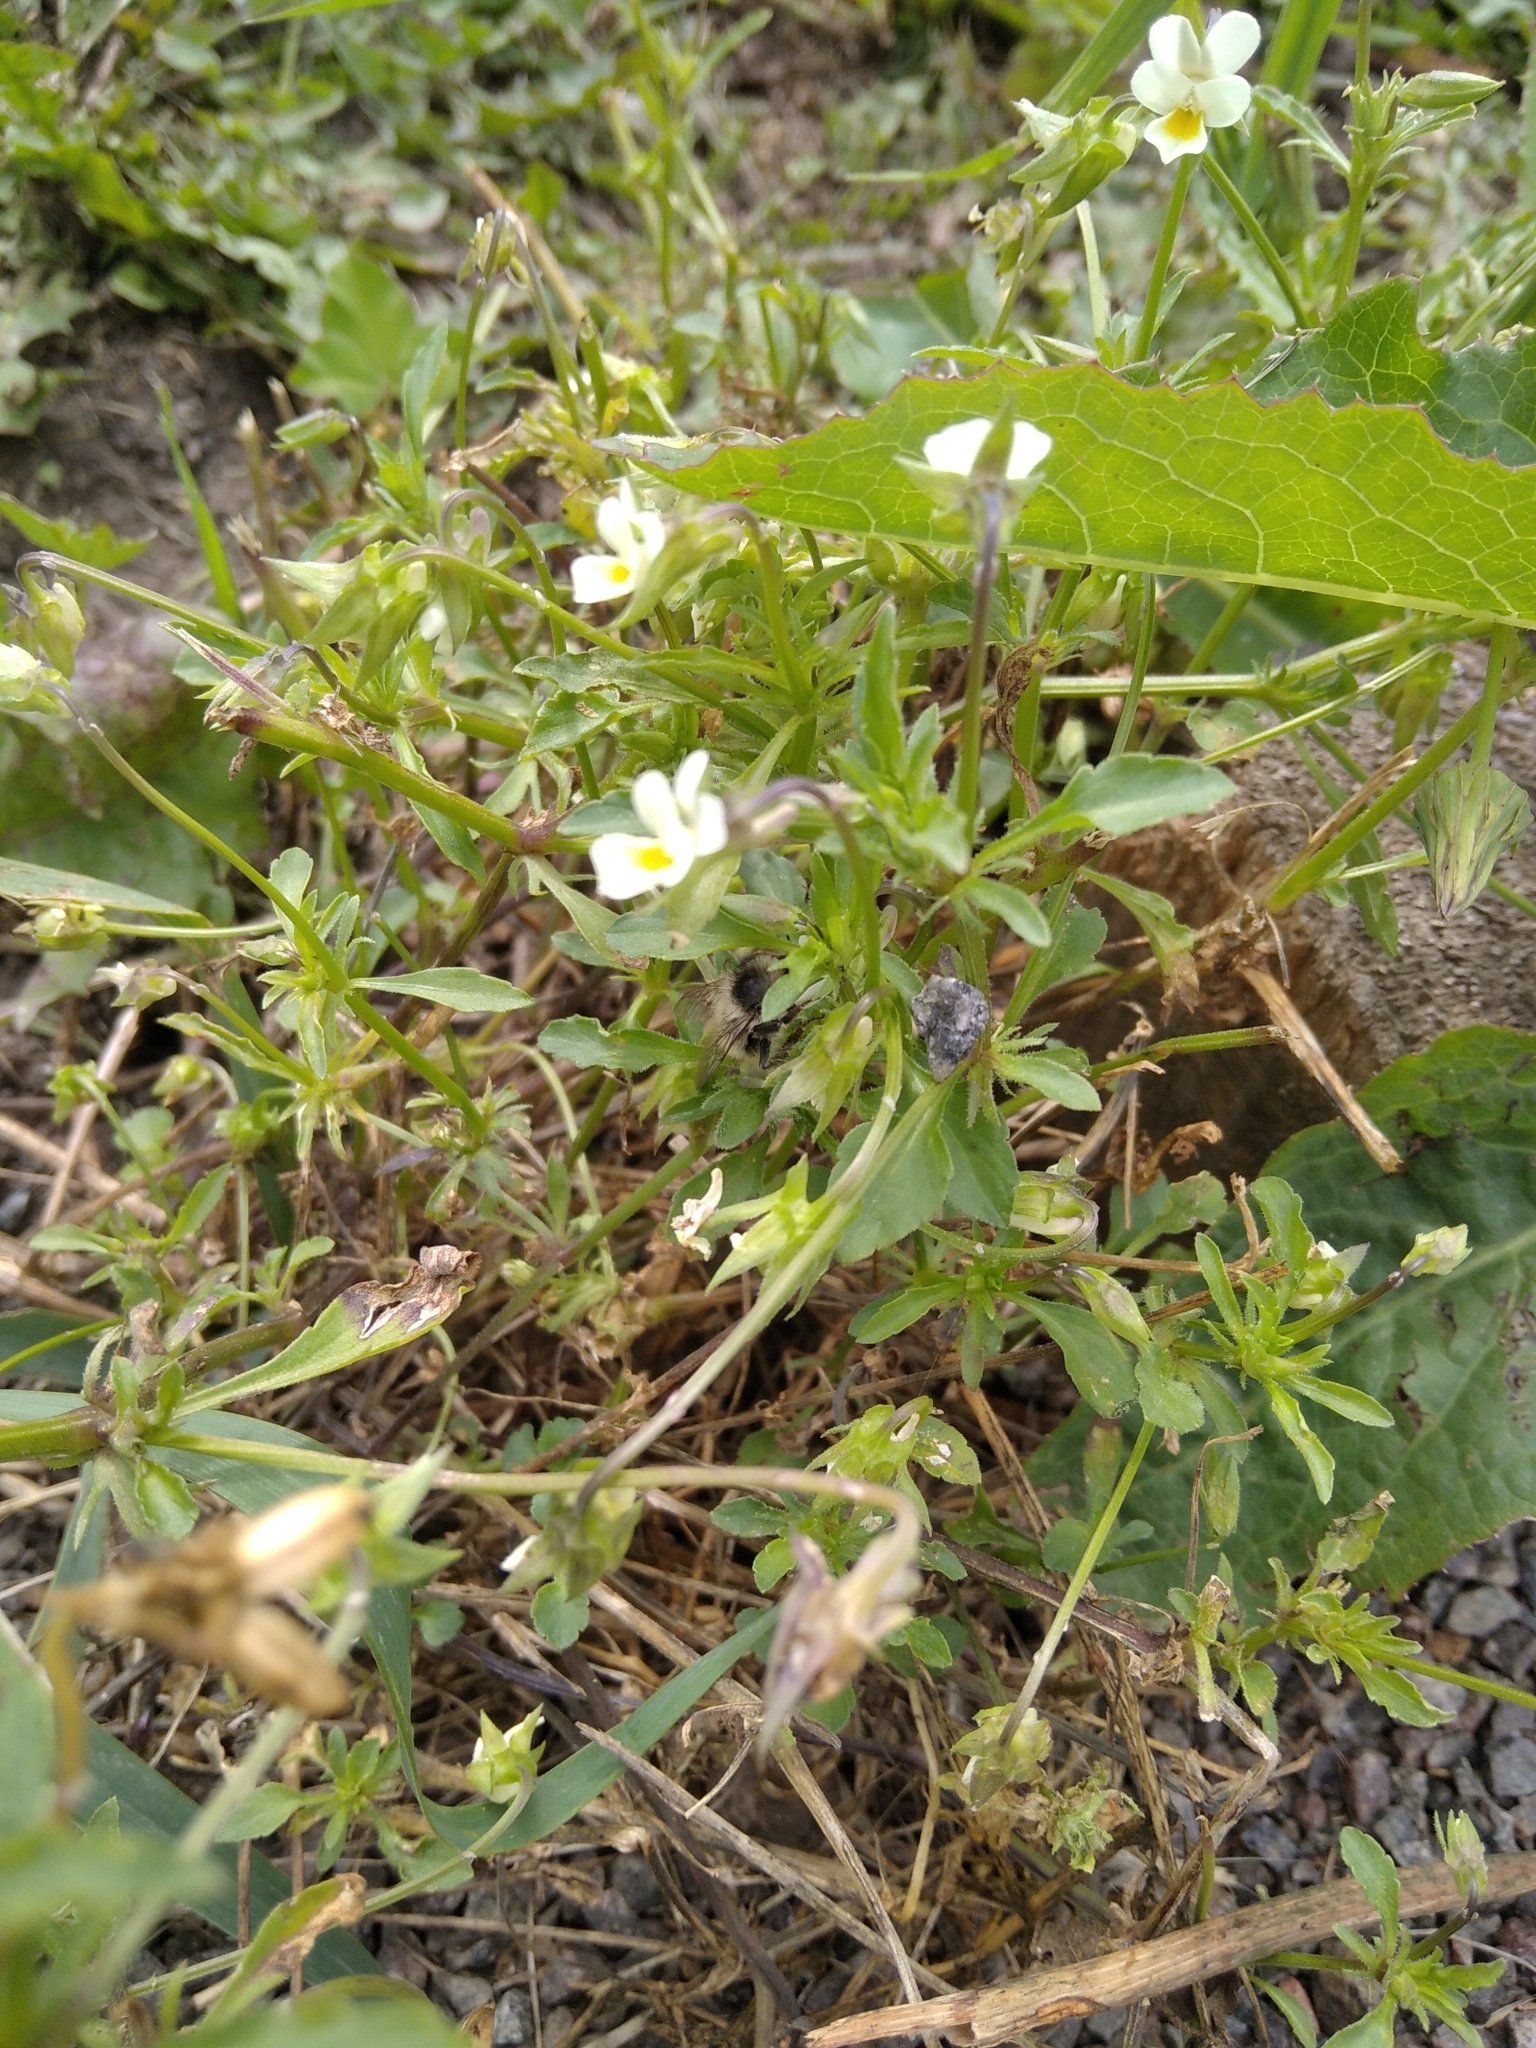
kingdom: Plantae
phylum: Tracheophyta
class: Magnoliopsida
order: Malpighiales
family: Violaceae
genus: Viola
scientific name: Viola arvensis
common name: Field pansy
